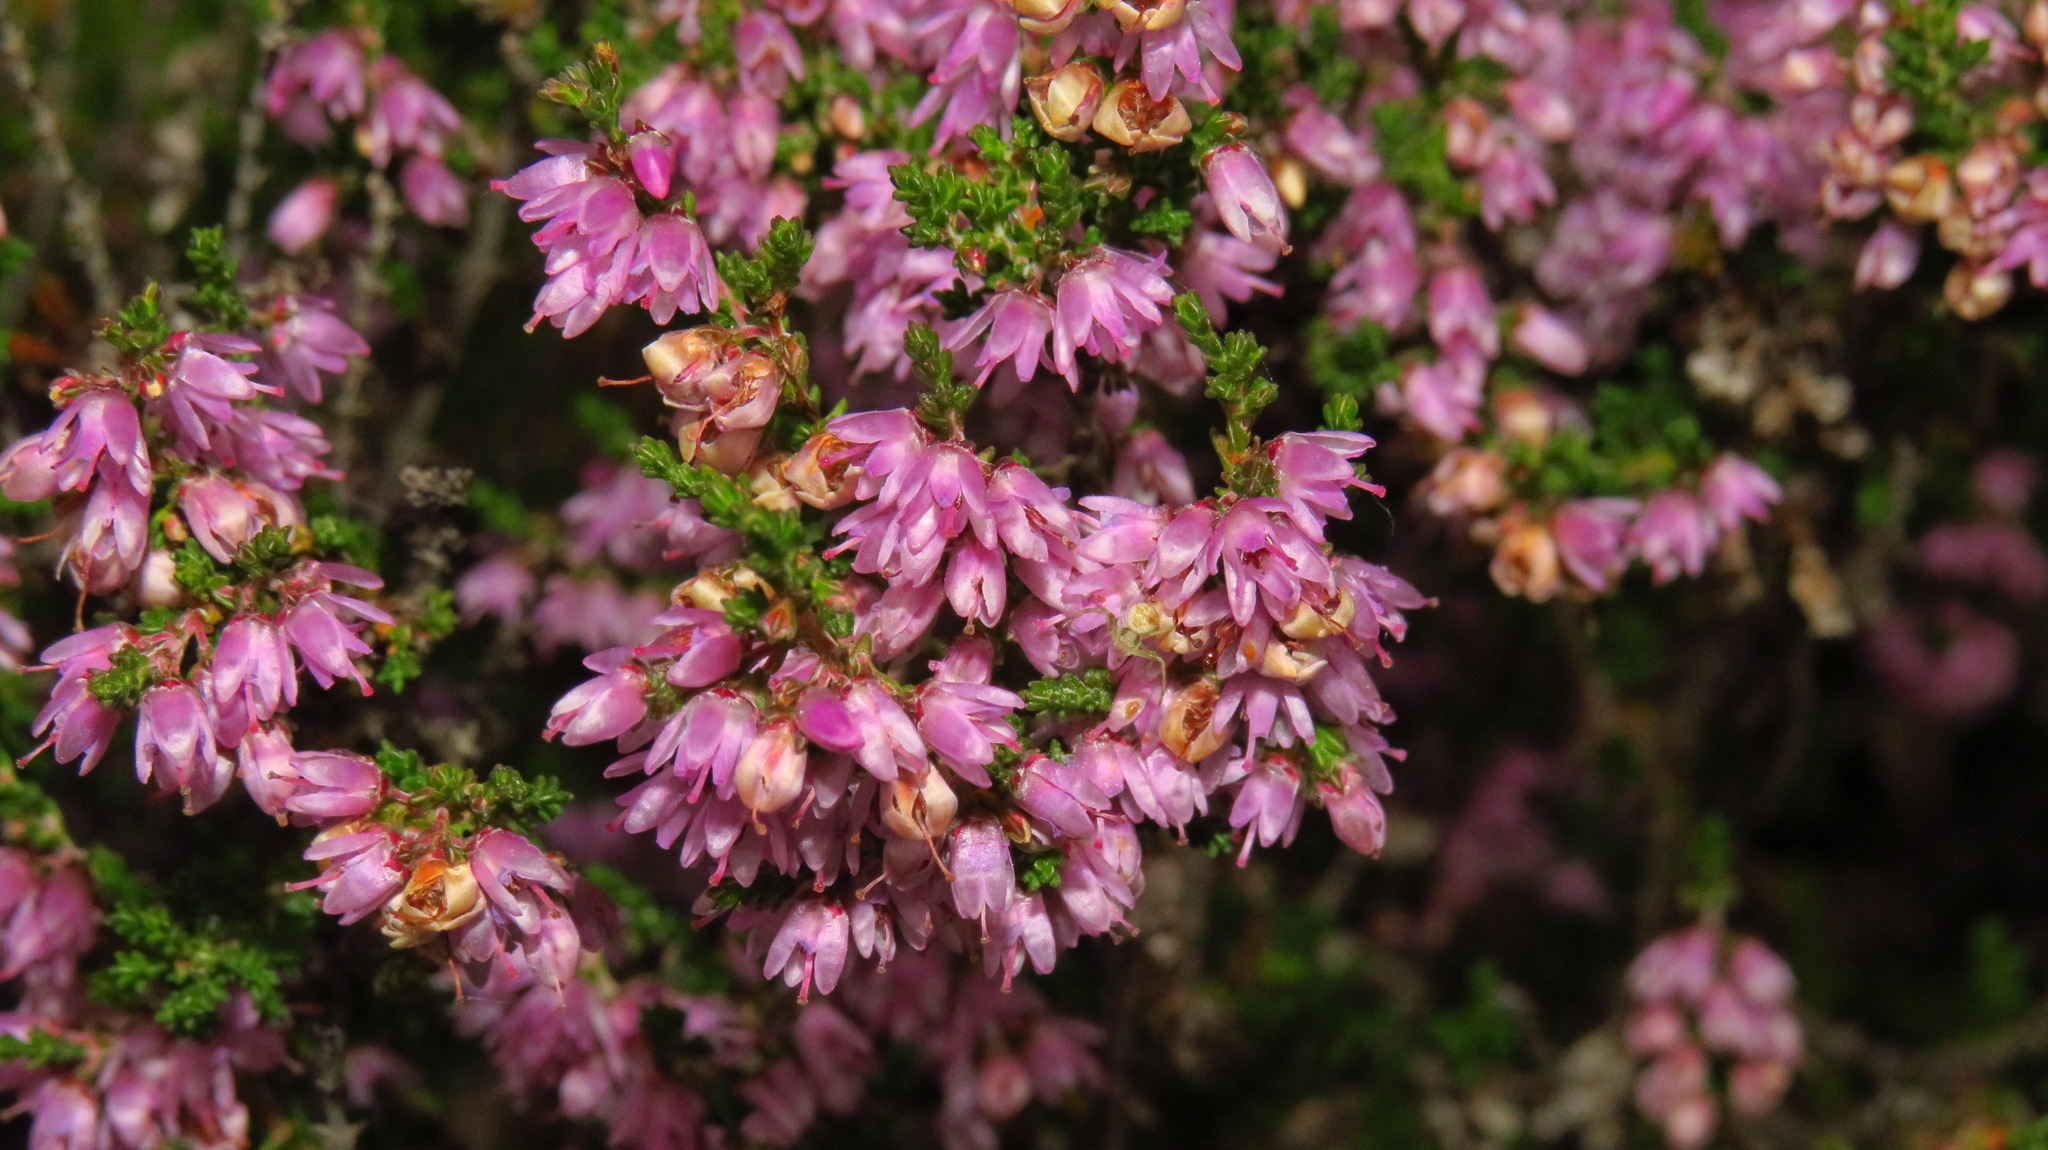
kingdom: Plantae
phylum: Tracheophyta
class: Magnoliopsida
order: Ericales
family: Ericaceae
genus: Calluna
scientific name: Calluna vulgaris
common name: Heather
